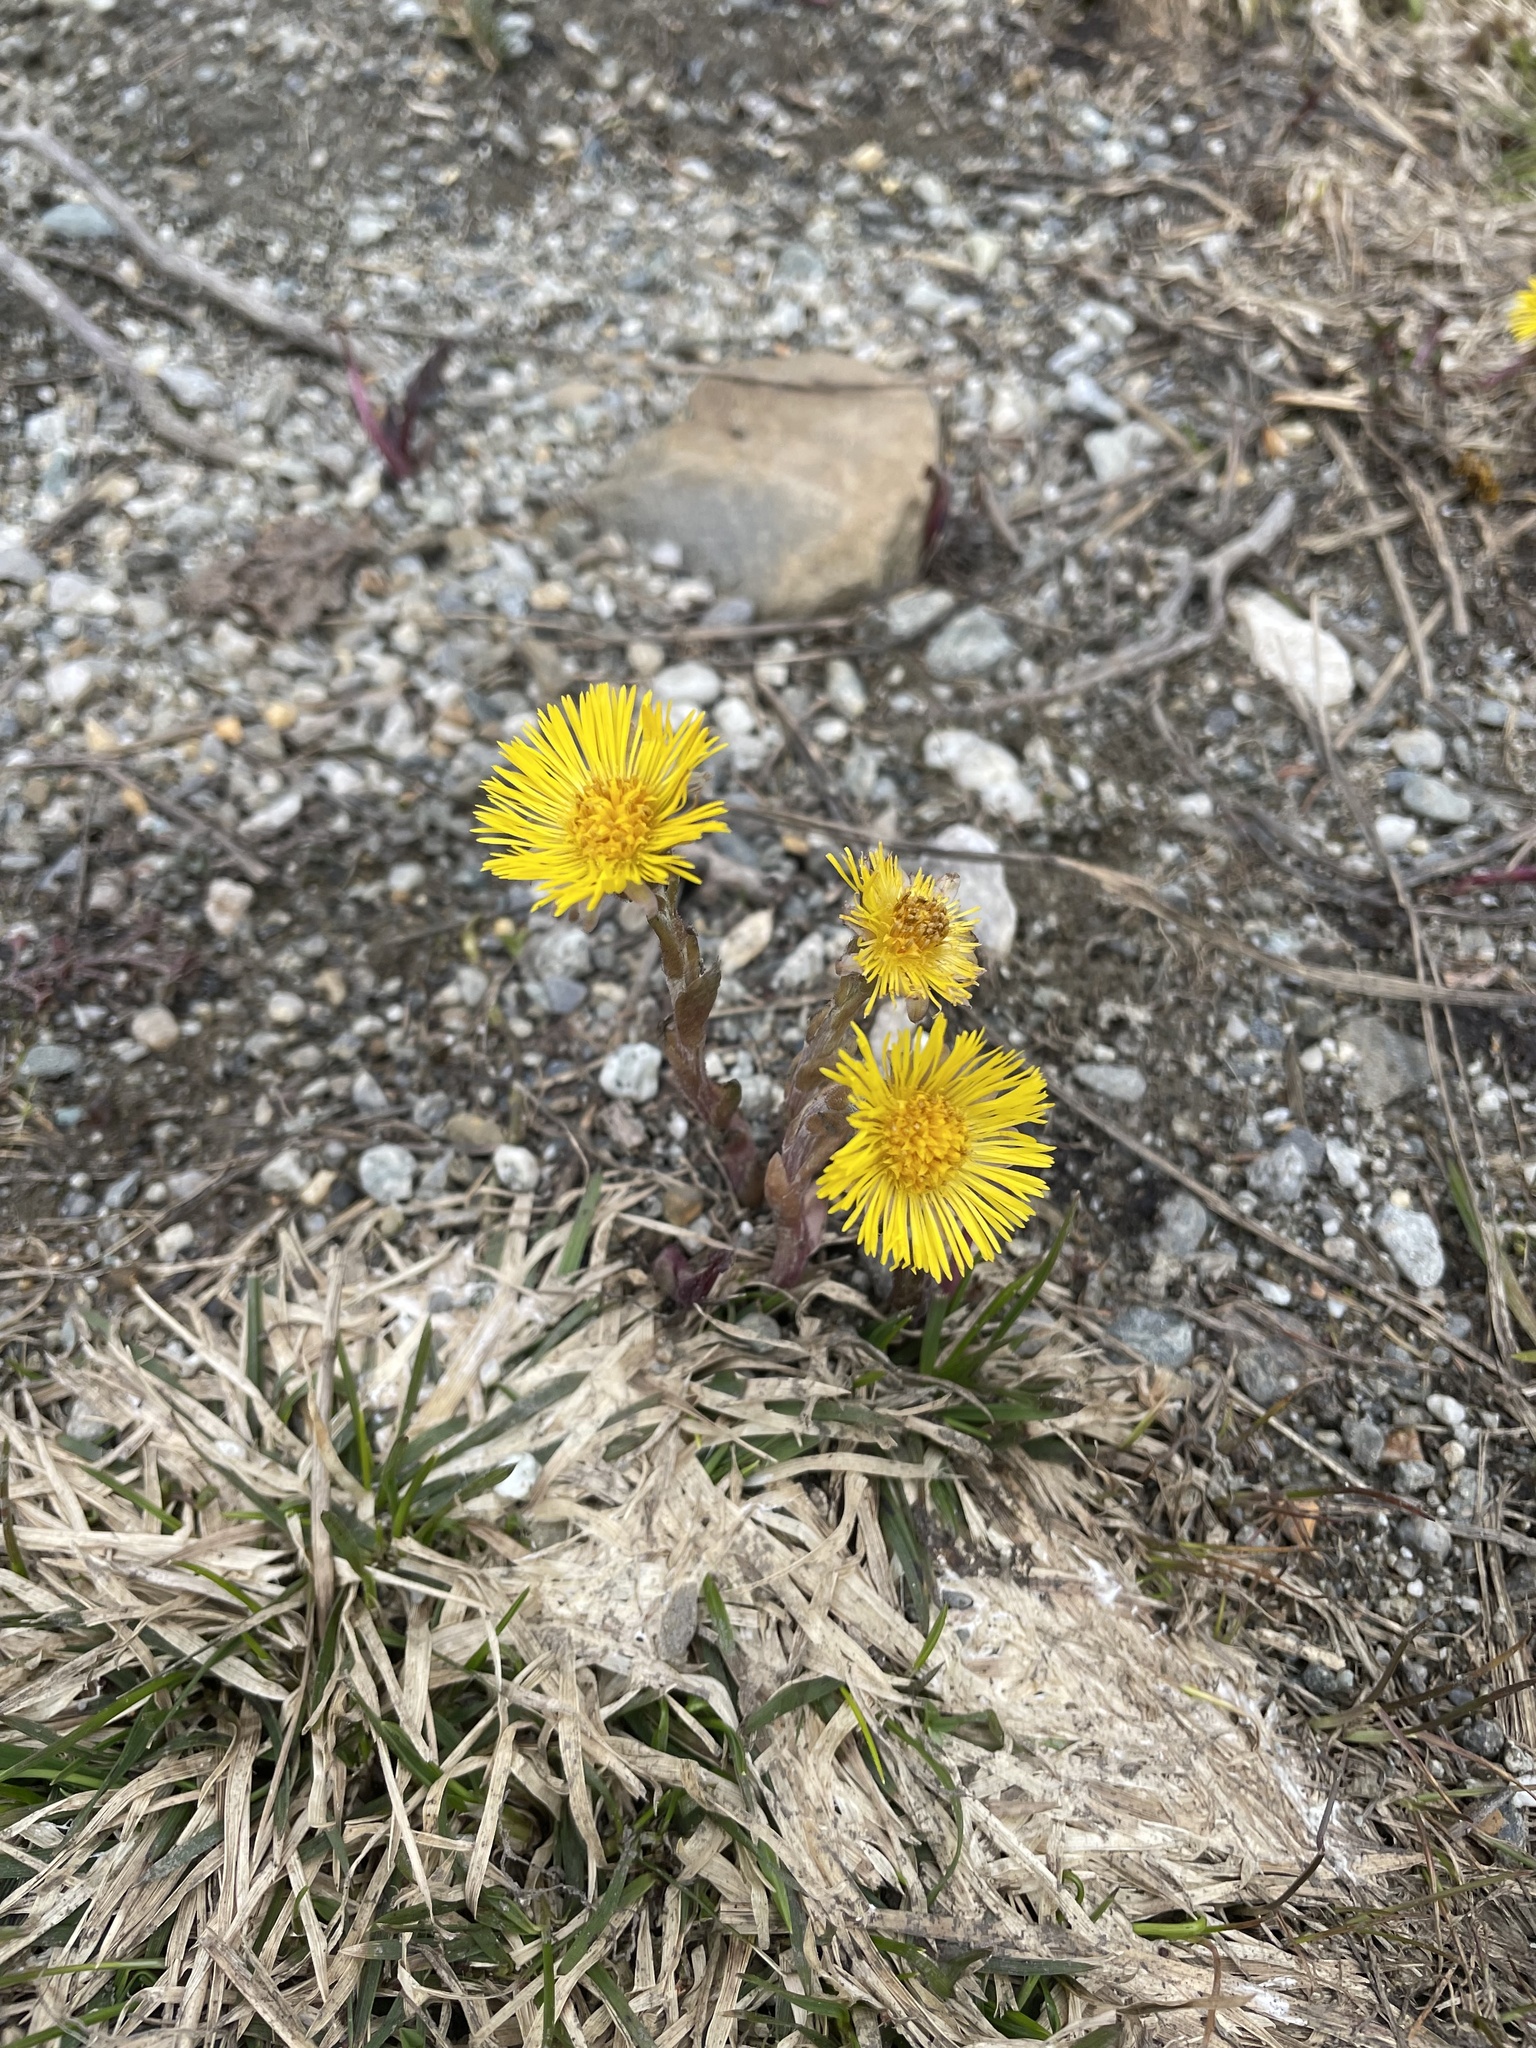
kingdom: Plantae
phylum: Tracheophyta
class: Magnoliopsida
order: Asterales
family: Asteraceae
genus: Tussilago
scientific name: Tussilago farfara
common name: Coltsfoot
